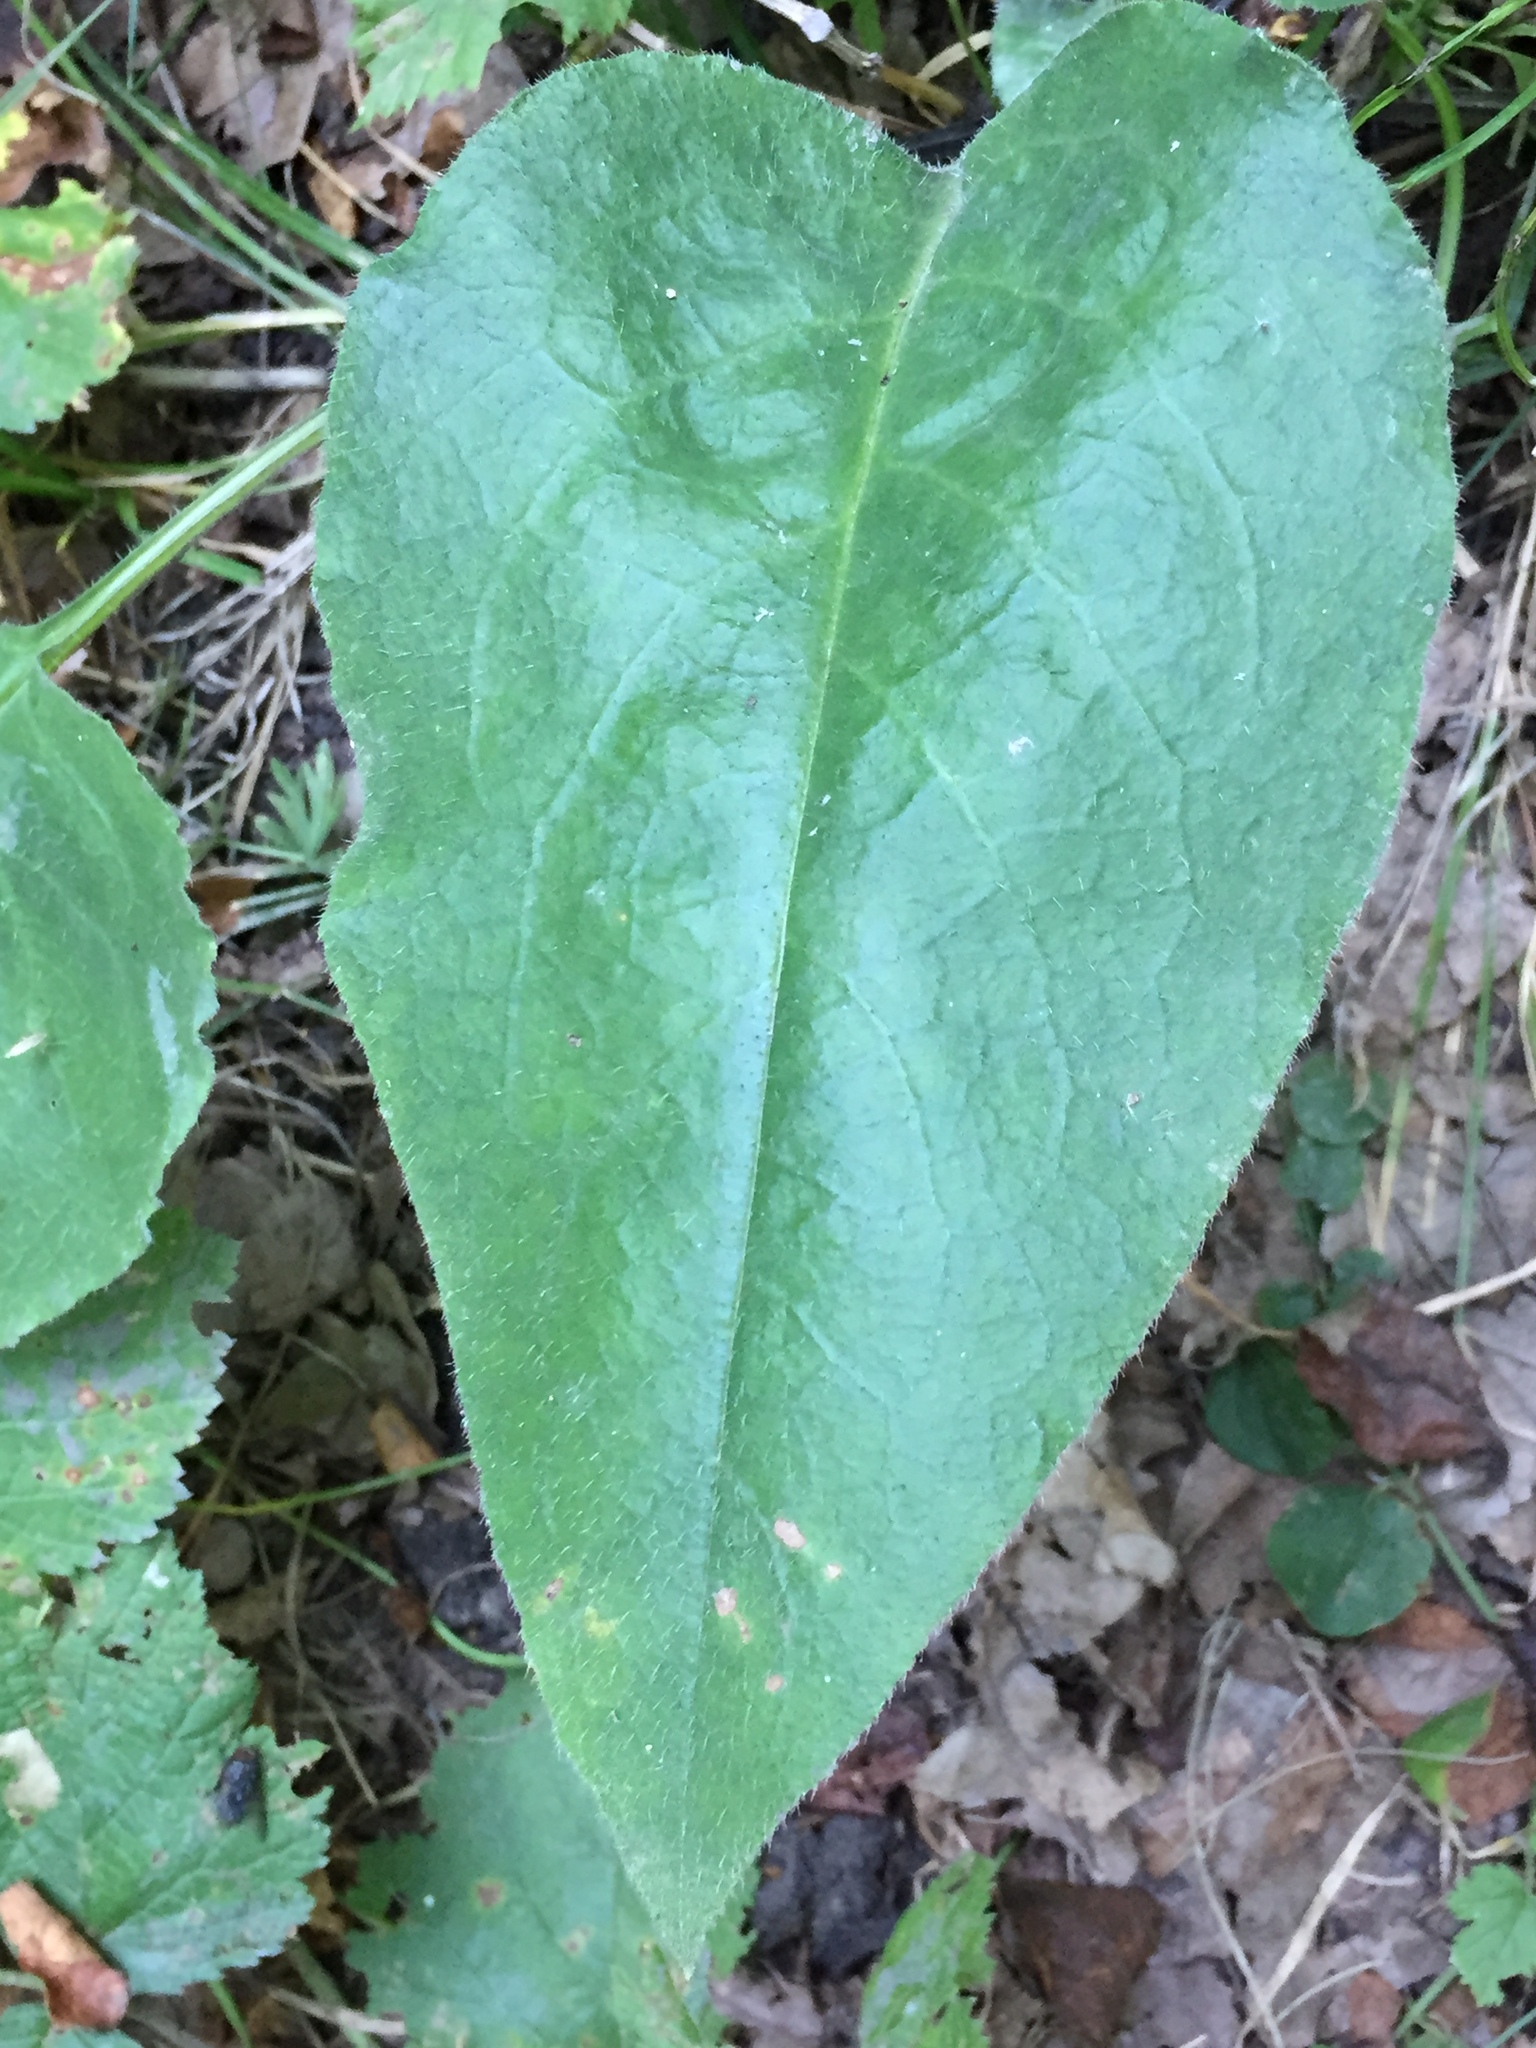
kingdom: Plantae
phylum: Tracheophyta
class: Magnoliopsida
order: Boraginales
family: Boraginaceae
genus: Pulmonaria
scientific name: Pulmonaria obscura
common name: Suffolk lungwort
